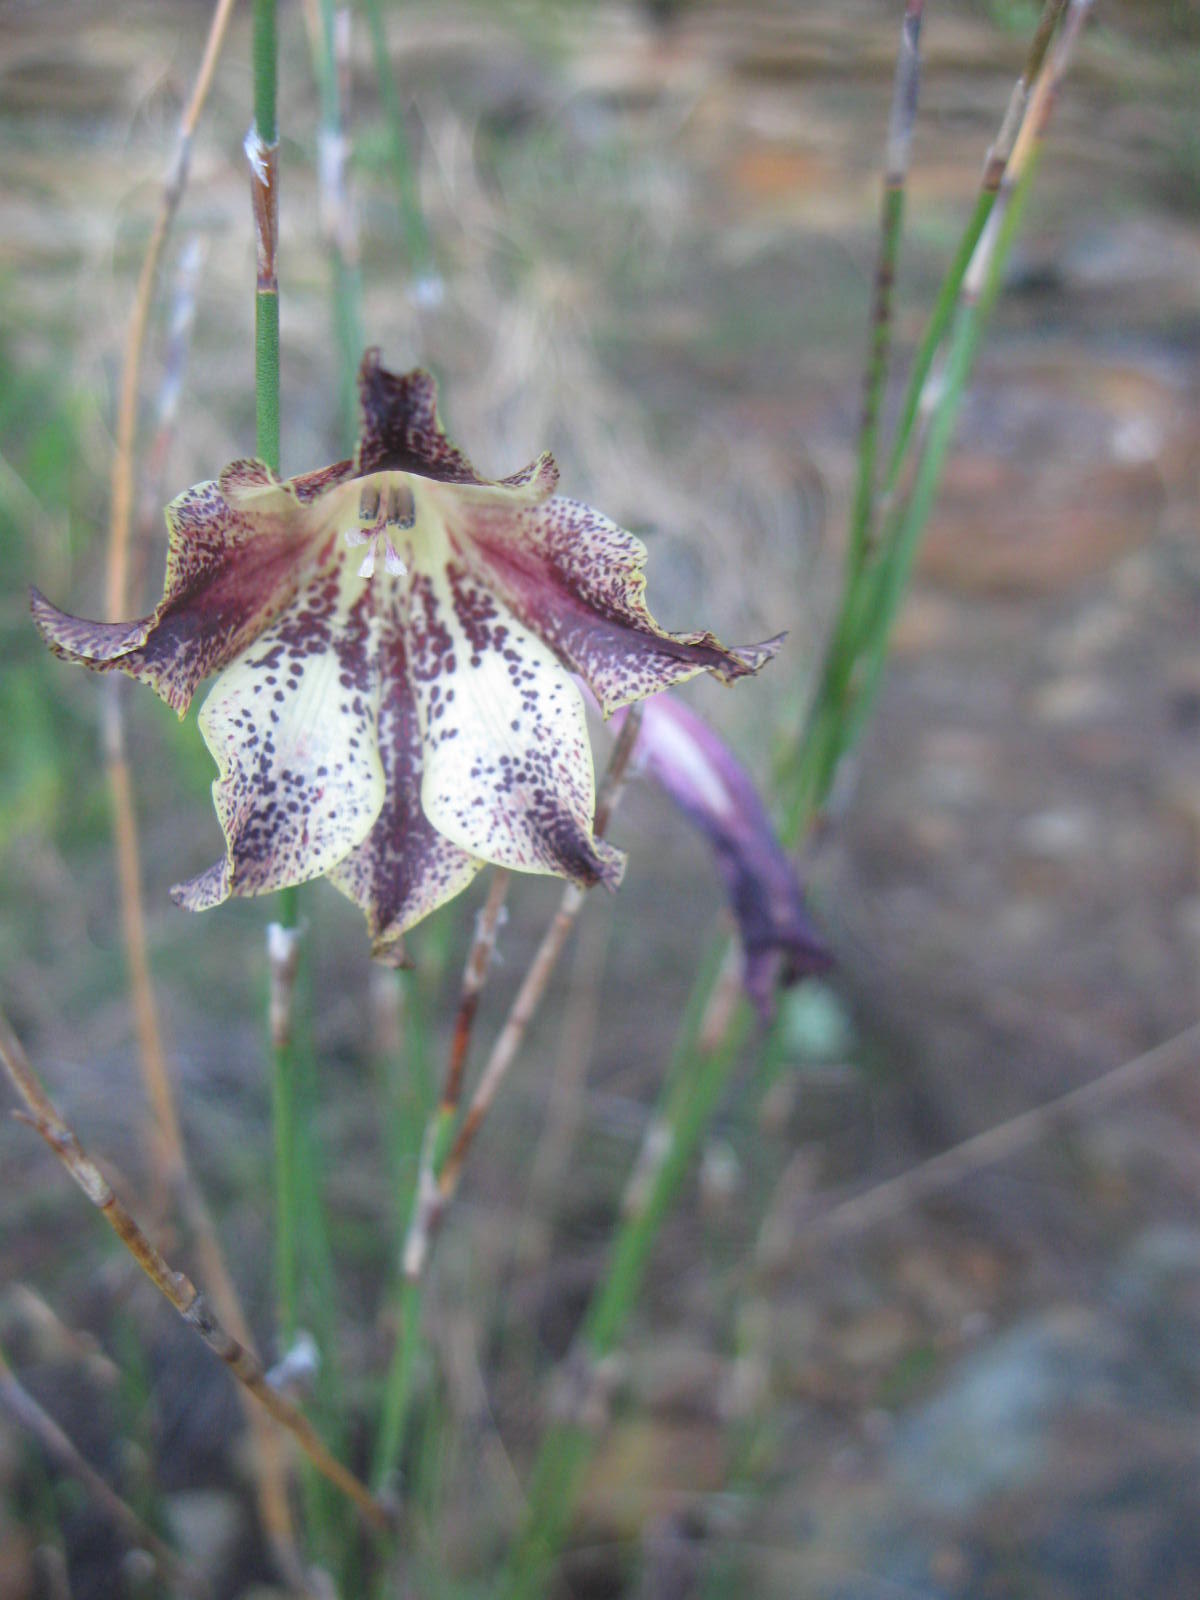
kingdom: Plantae
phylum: Tracheophyta
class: Liliopsida
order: Asparagales
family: Iridaceae
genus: Gladiolus
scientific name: Gladiolus maculatus
